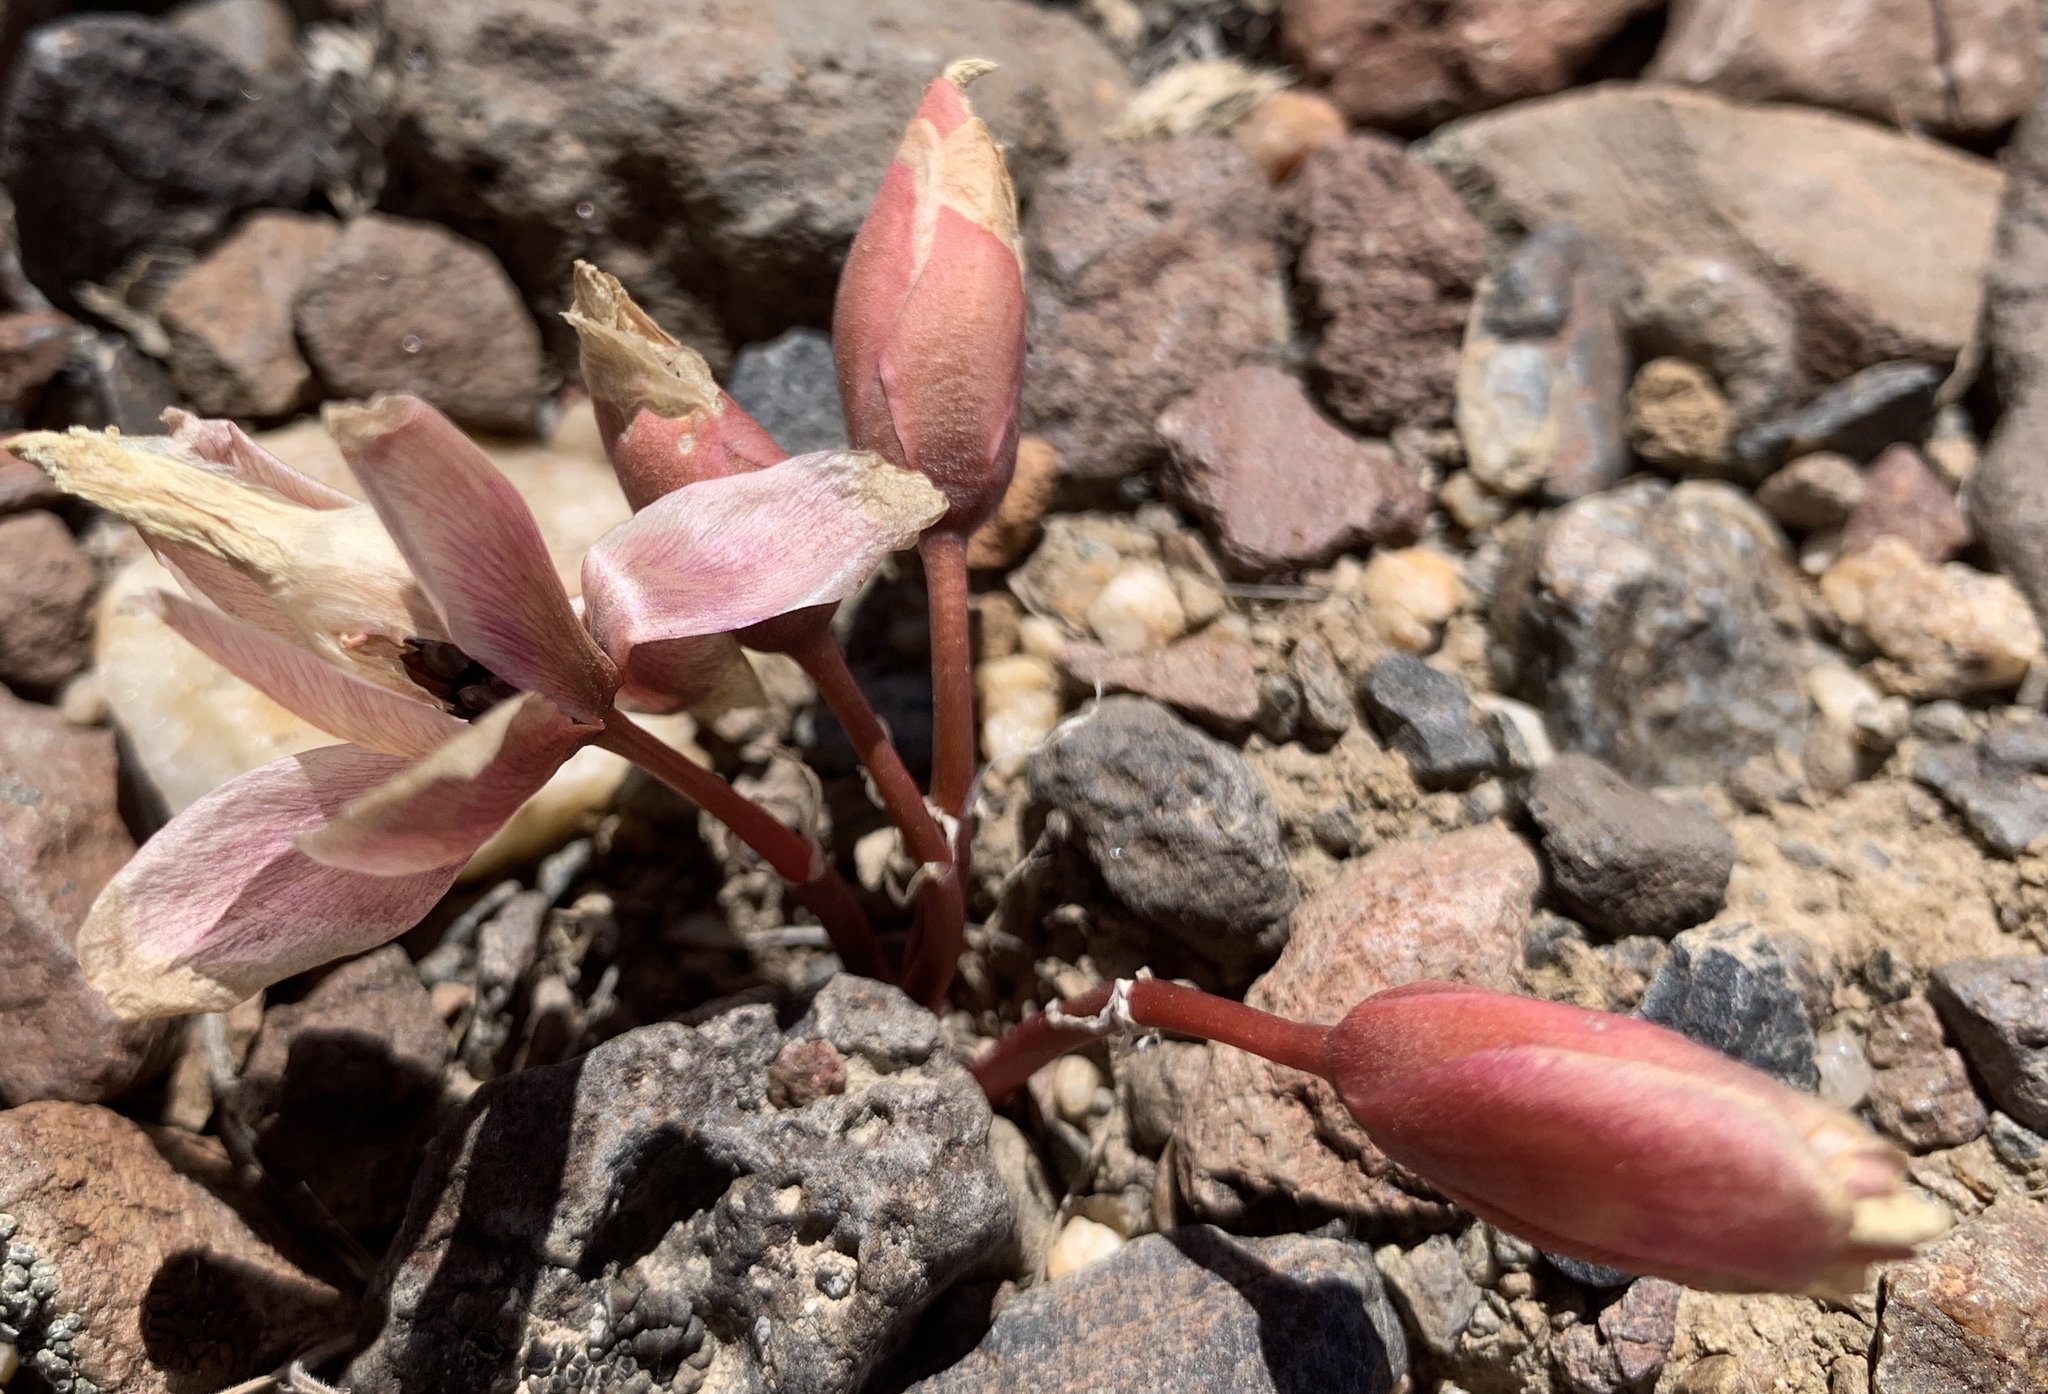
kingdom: Plantae
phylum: Tracheophyta
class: Magnoliopsida
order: Caryophyllales
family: Montiaceae
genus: Lewisia
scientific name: Lewisia rediviva
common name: Bitter-root
